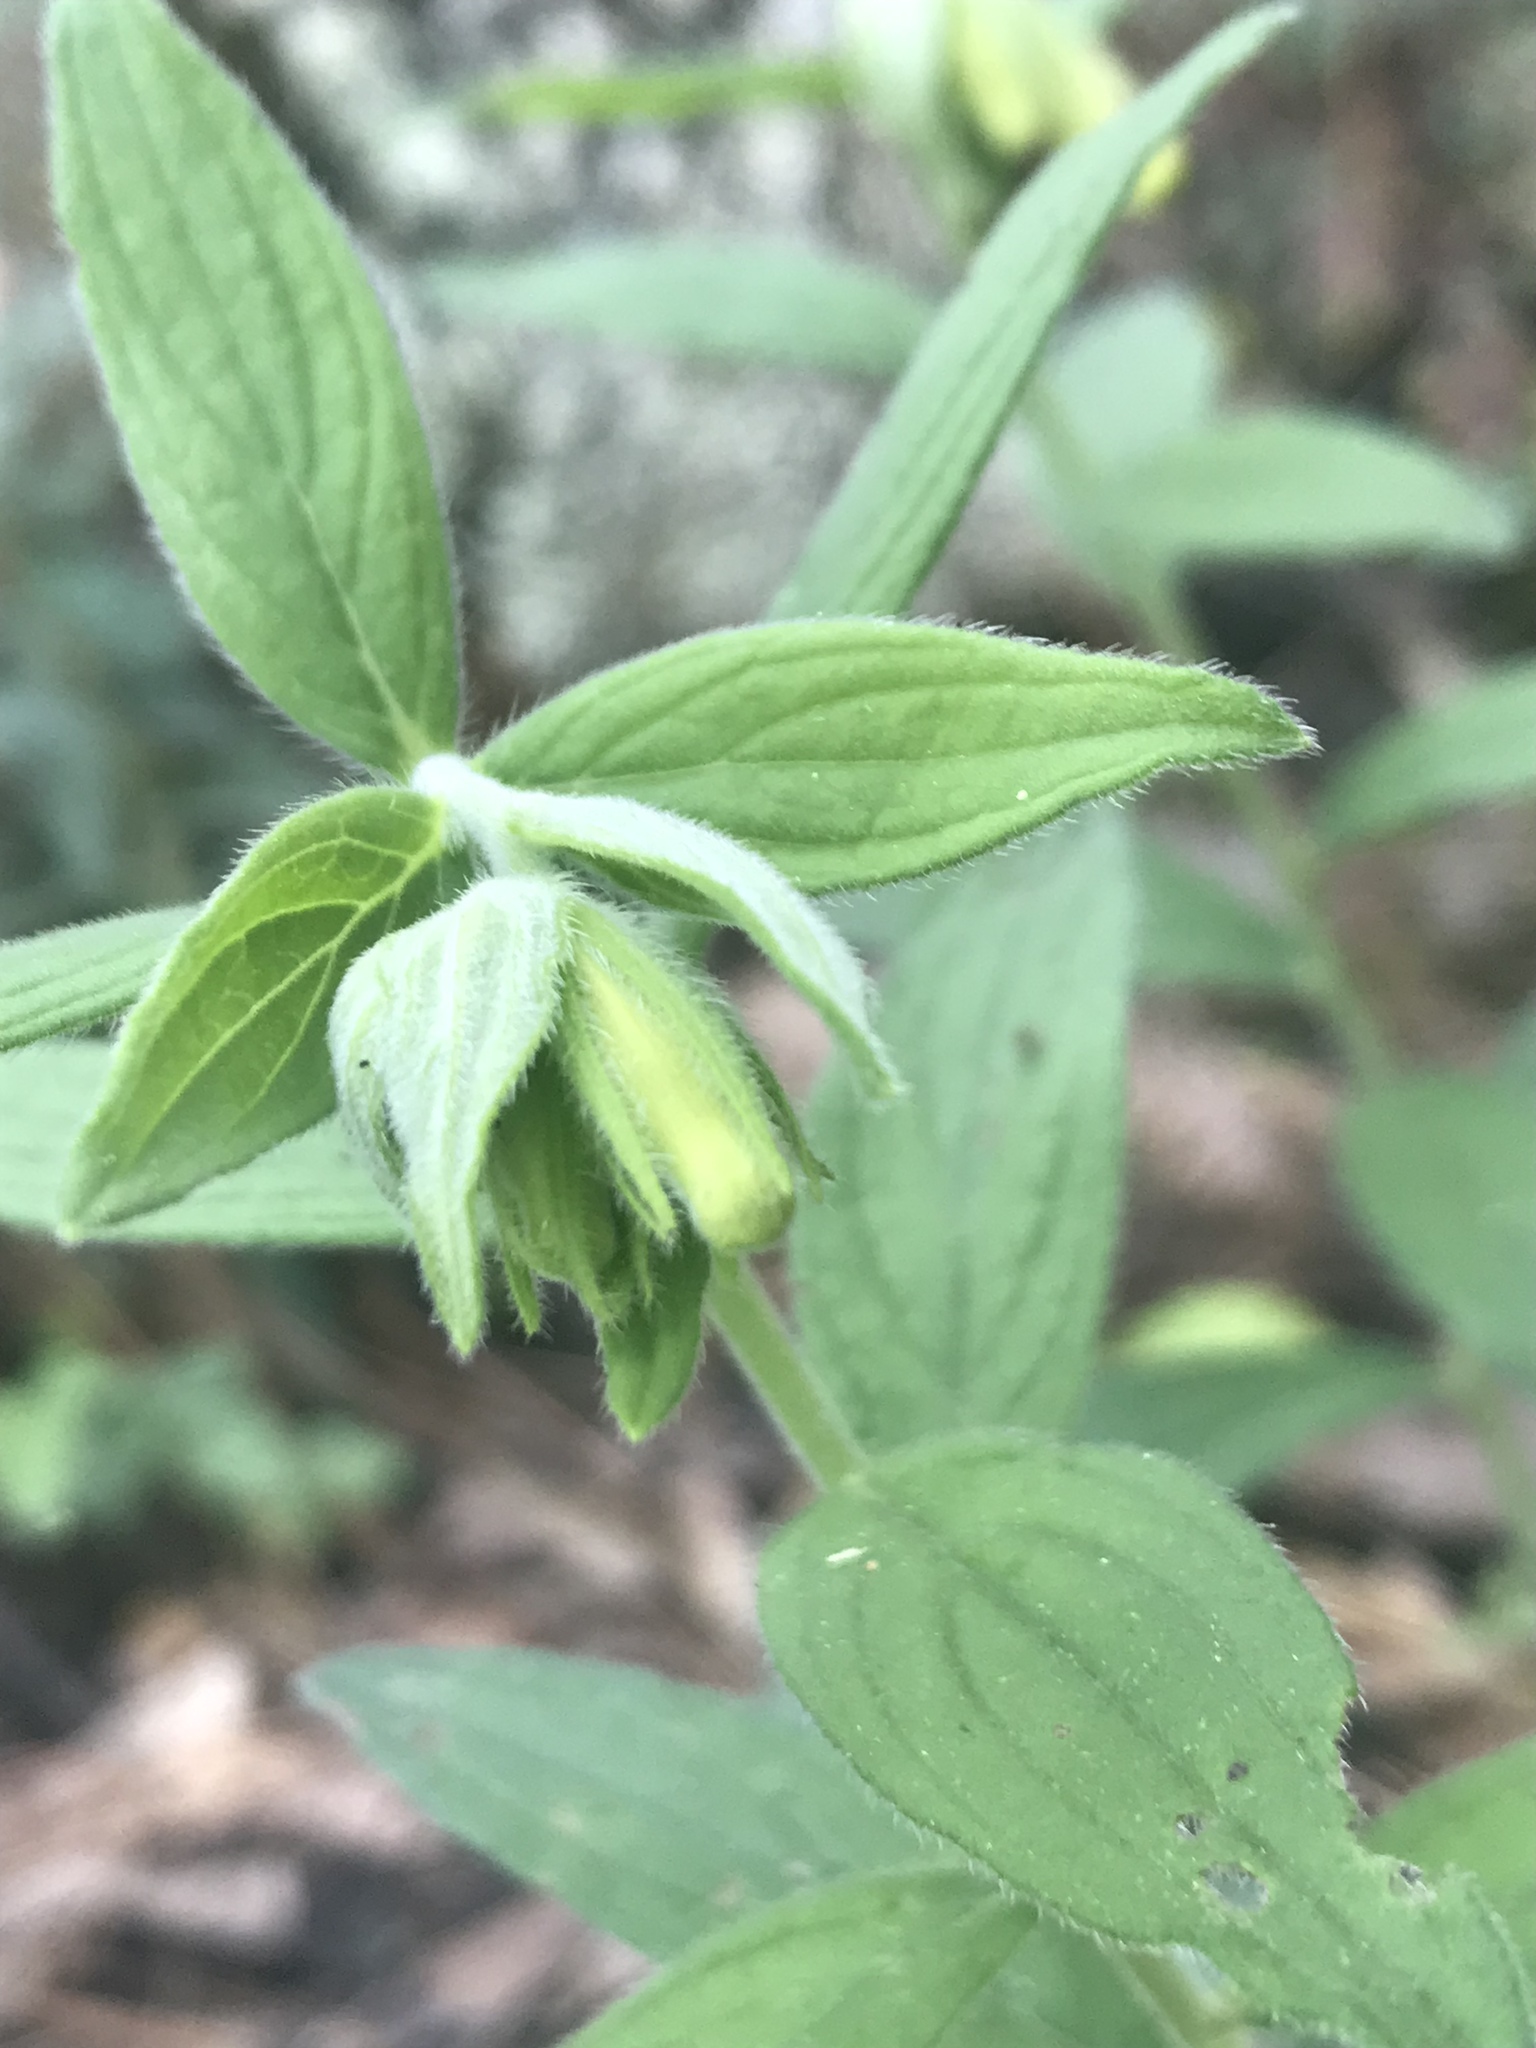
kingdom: Plantae
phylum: Tracheophyta
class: Magnoliopsida
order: Boraginales
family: Boraginaceae
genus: Lithospermum
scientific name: Lithospermum viride
